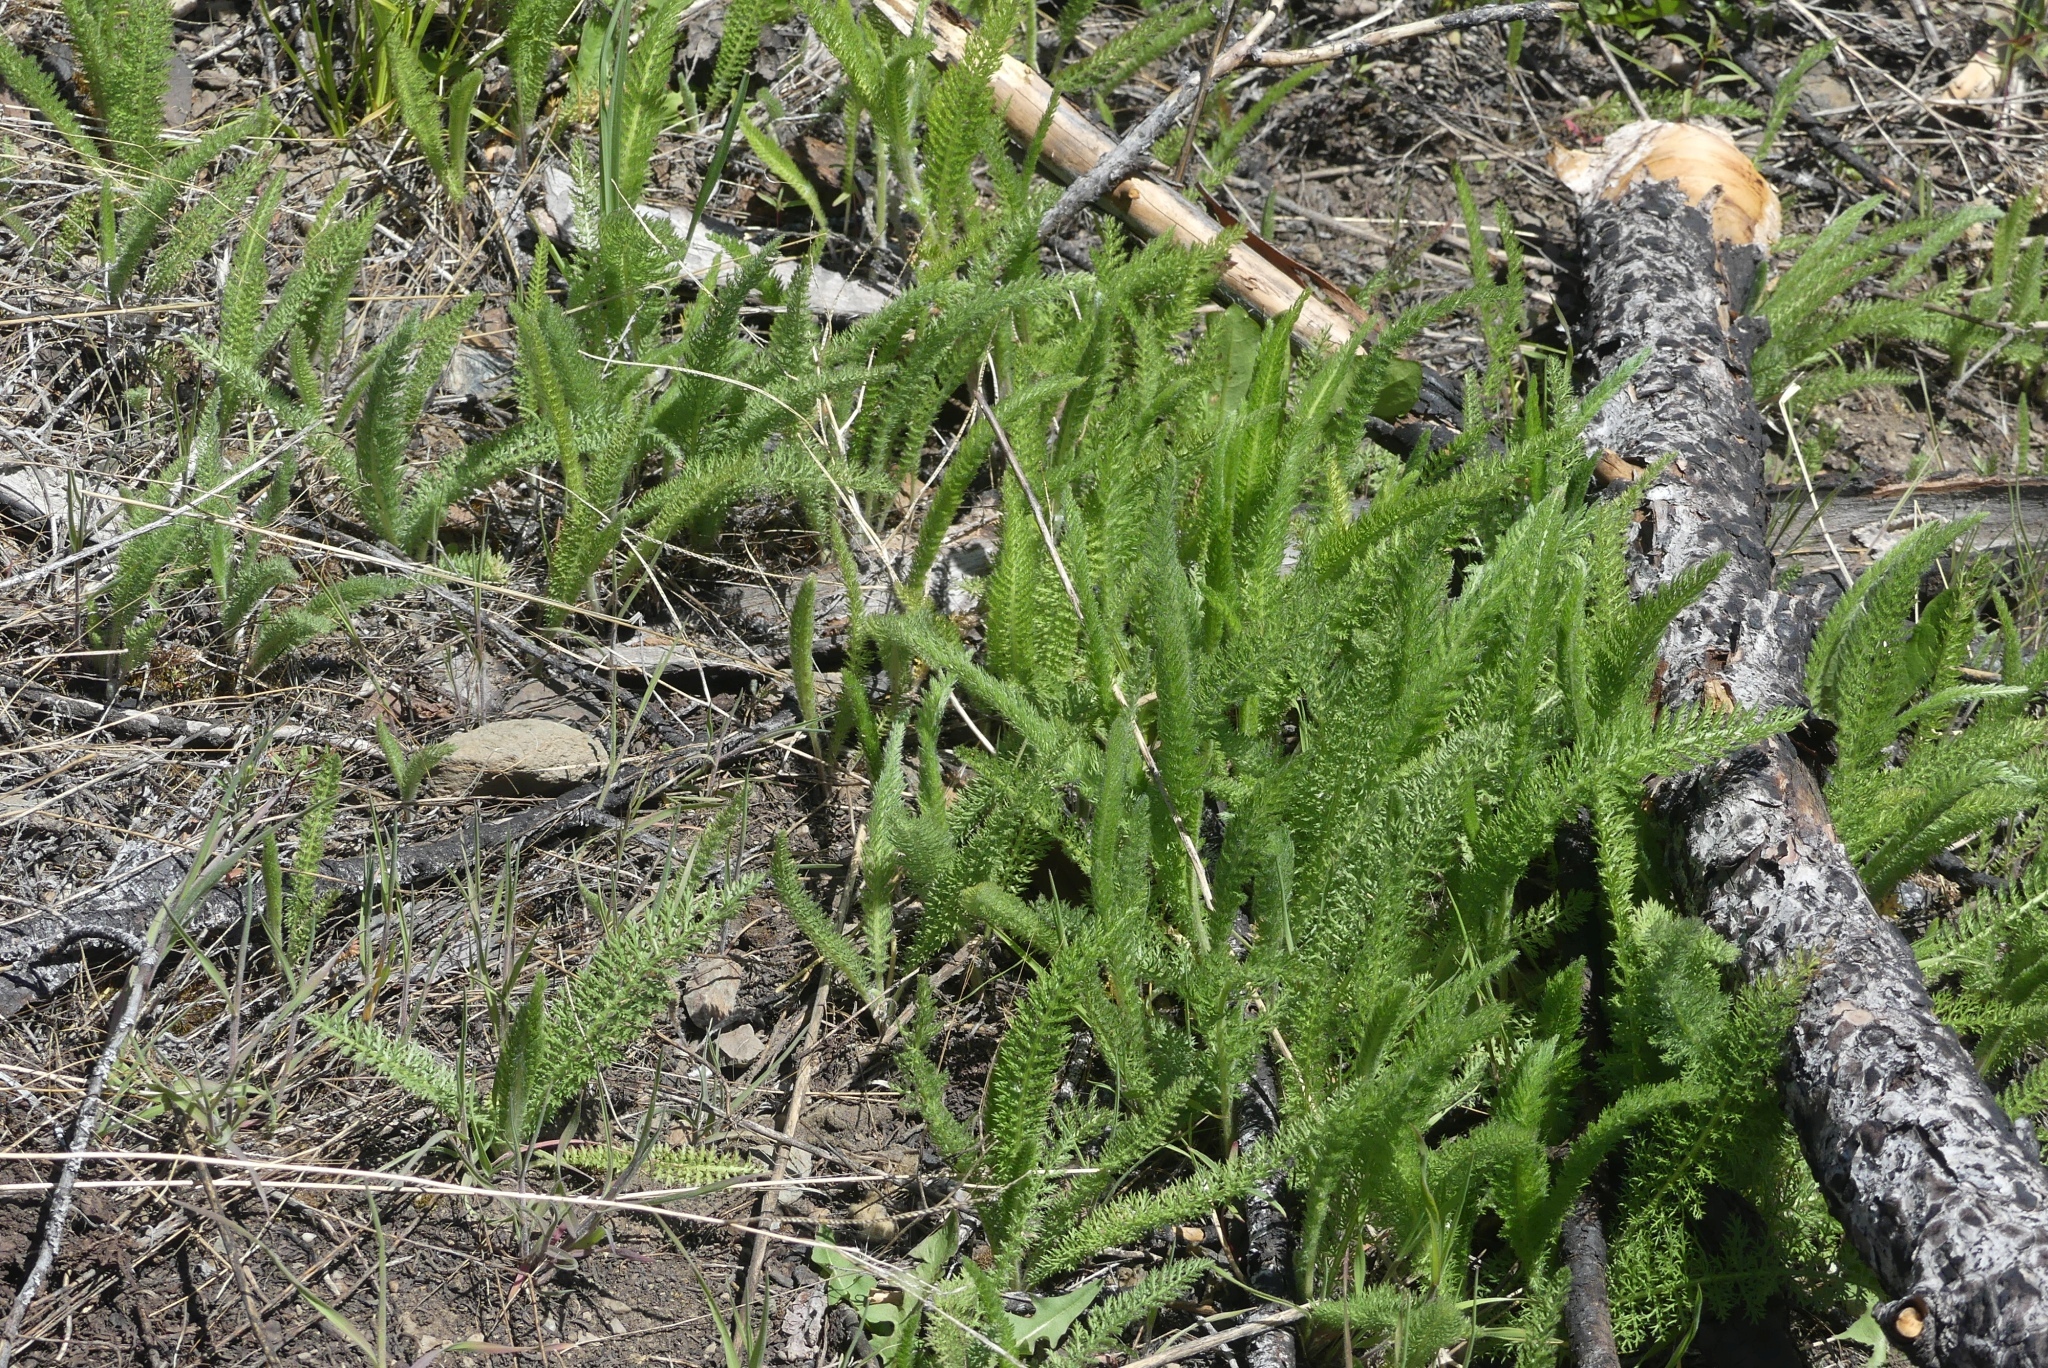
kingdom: Plantae
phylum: Tracheophyta
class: Magnoliopsida
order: Asterales
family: Asteraceae
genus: Achillea
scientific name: Achillea millefolium
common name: Yarrow
